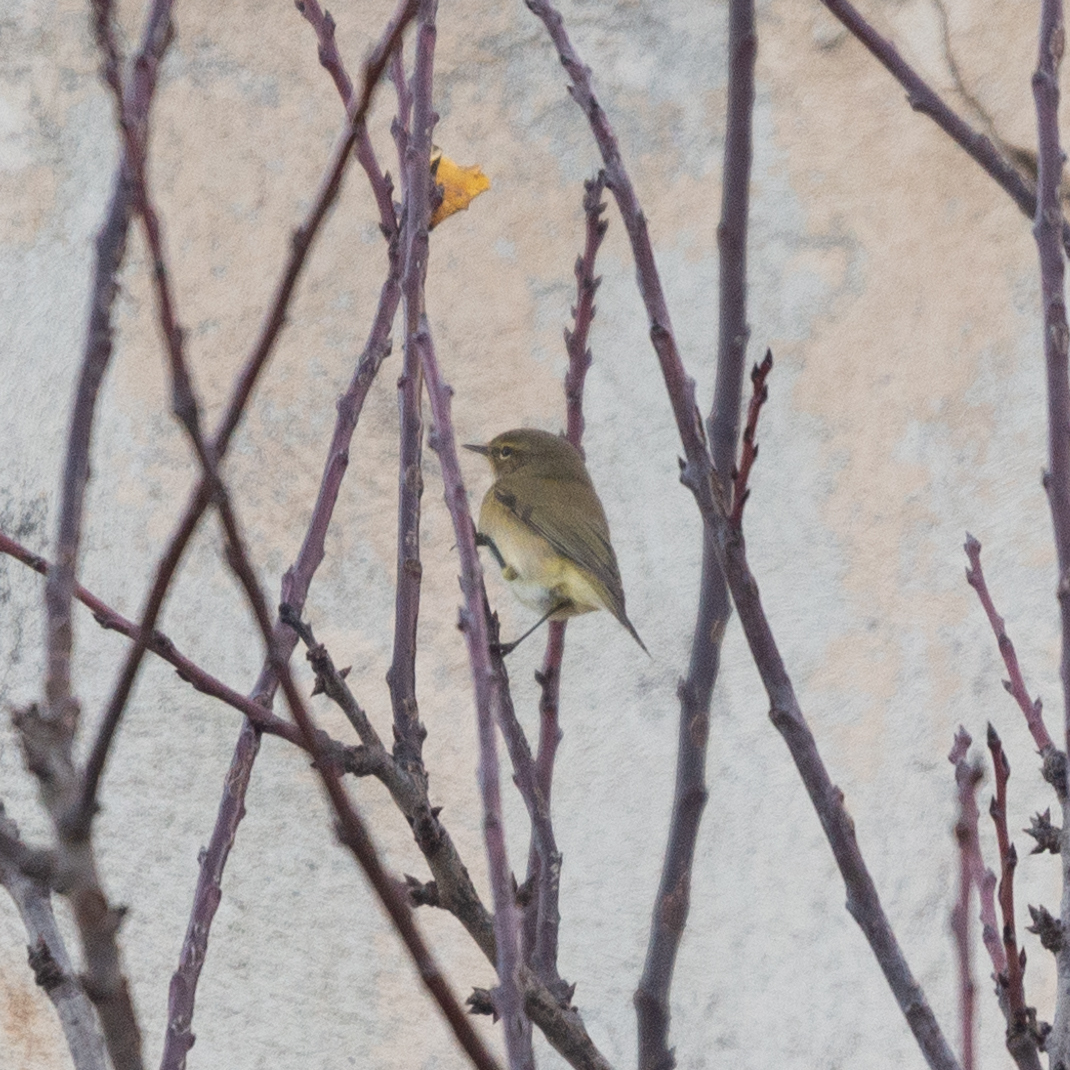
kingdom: Animalia
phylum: Chordata
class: Aves
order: Passeriformes
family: Phylloscopidae
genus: Phylloscopus
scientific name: Phylloscopus collybita
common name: Common chiffchaff
